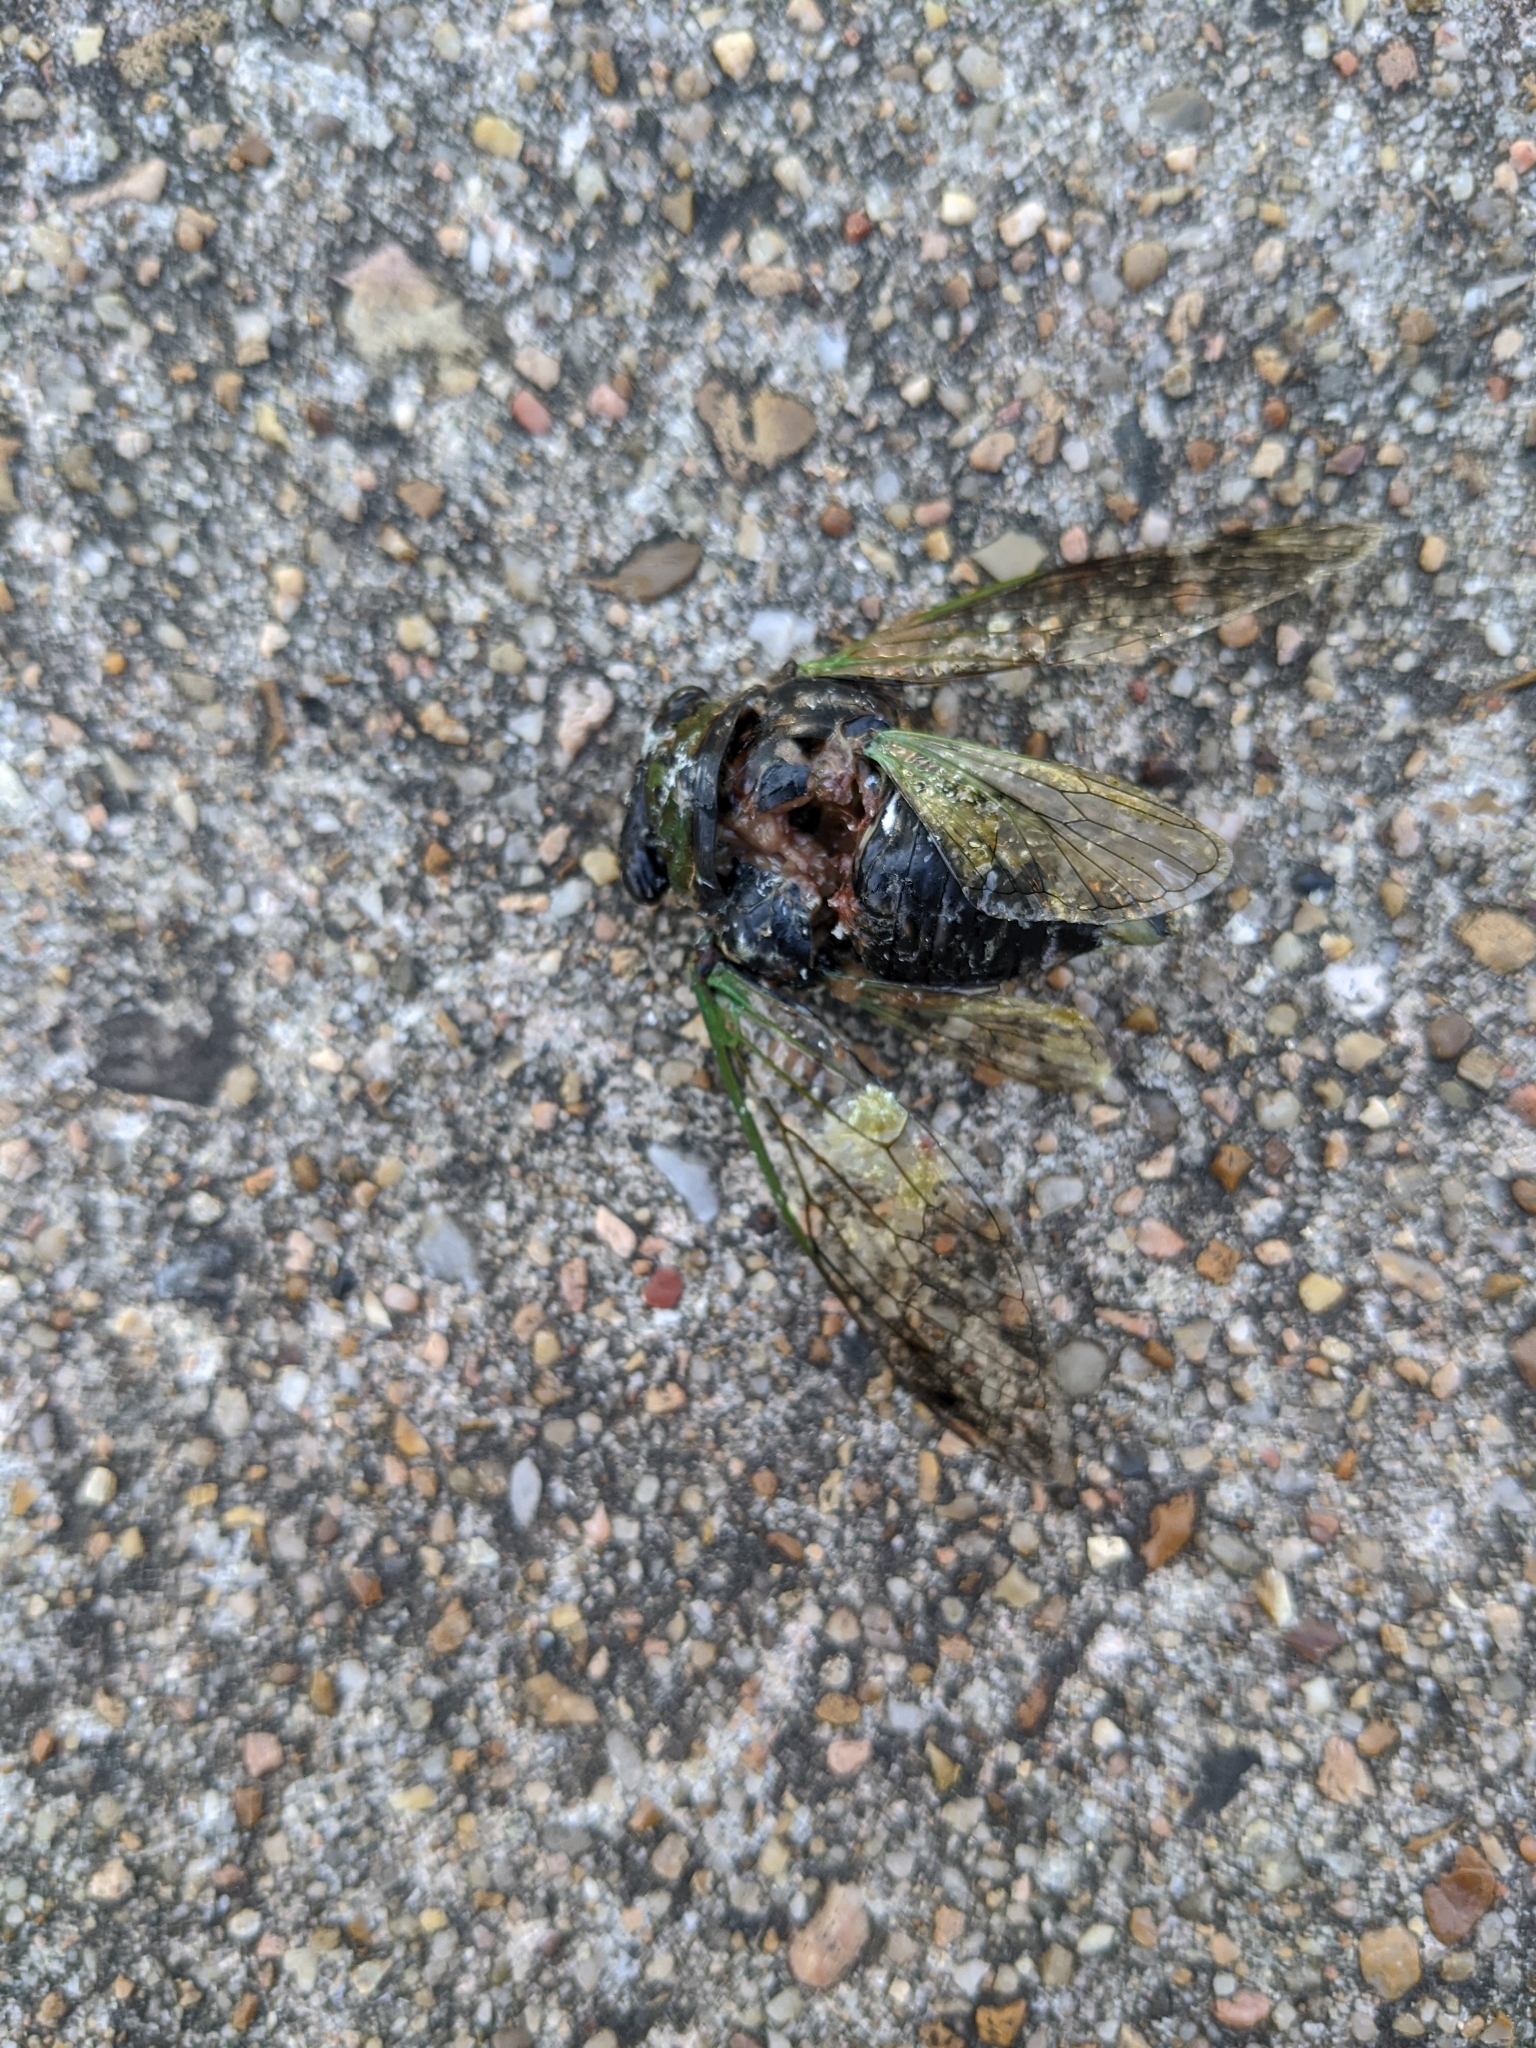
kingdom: Animalia
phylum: Arthropoda
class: Insecta
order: Hemiptera
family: Cicadidae
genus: Neotibicen
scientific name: Neotibicen tibicen
